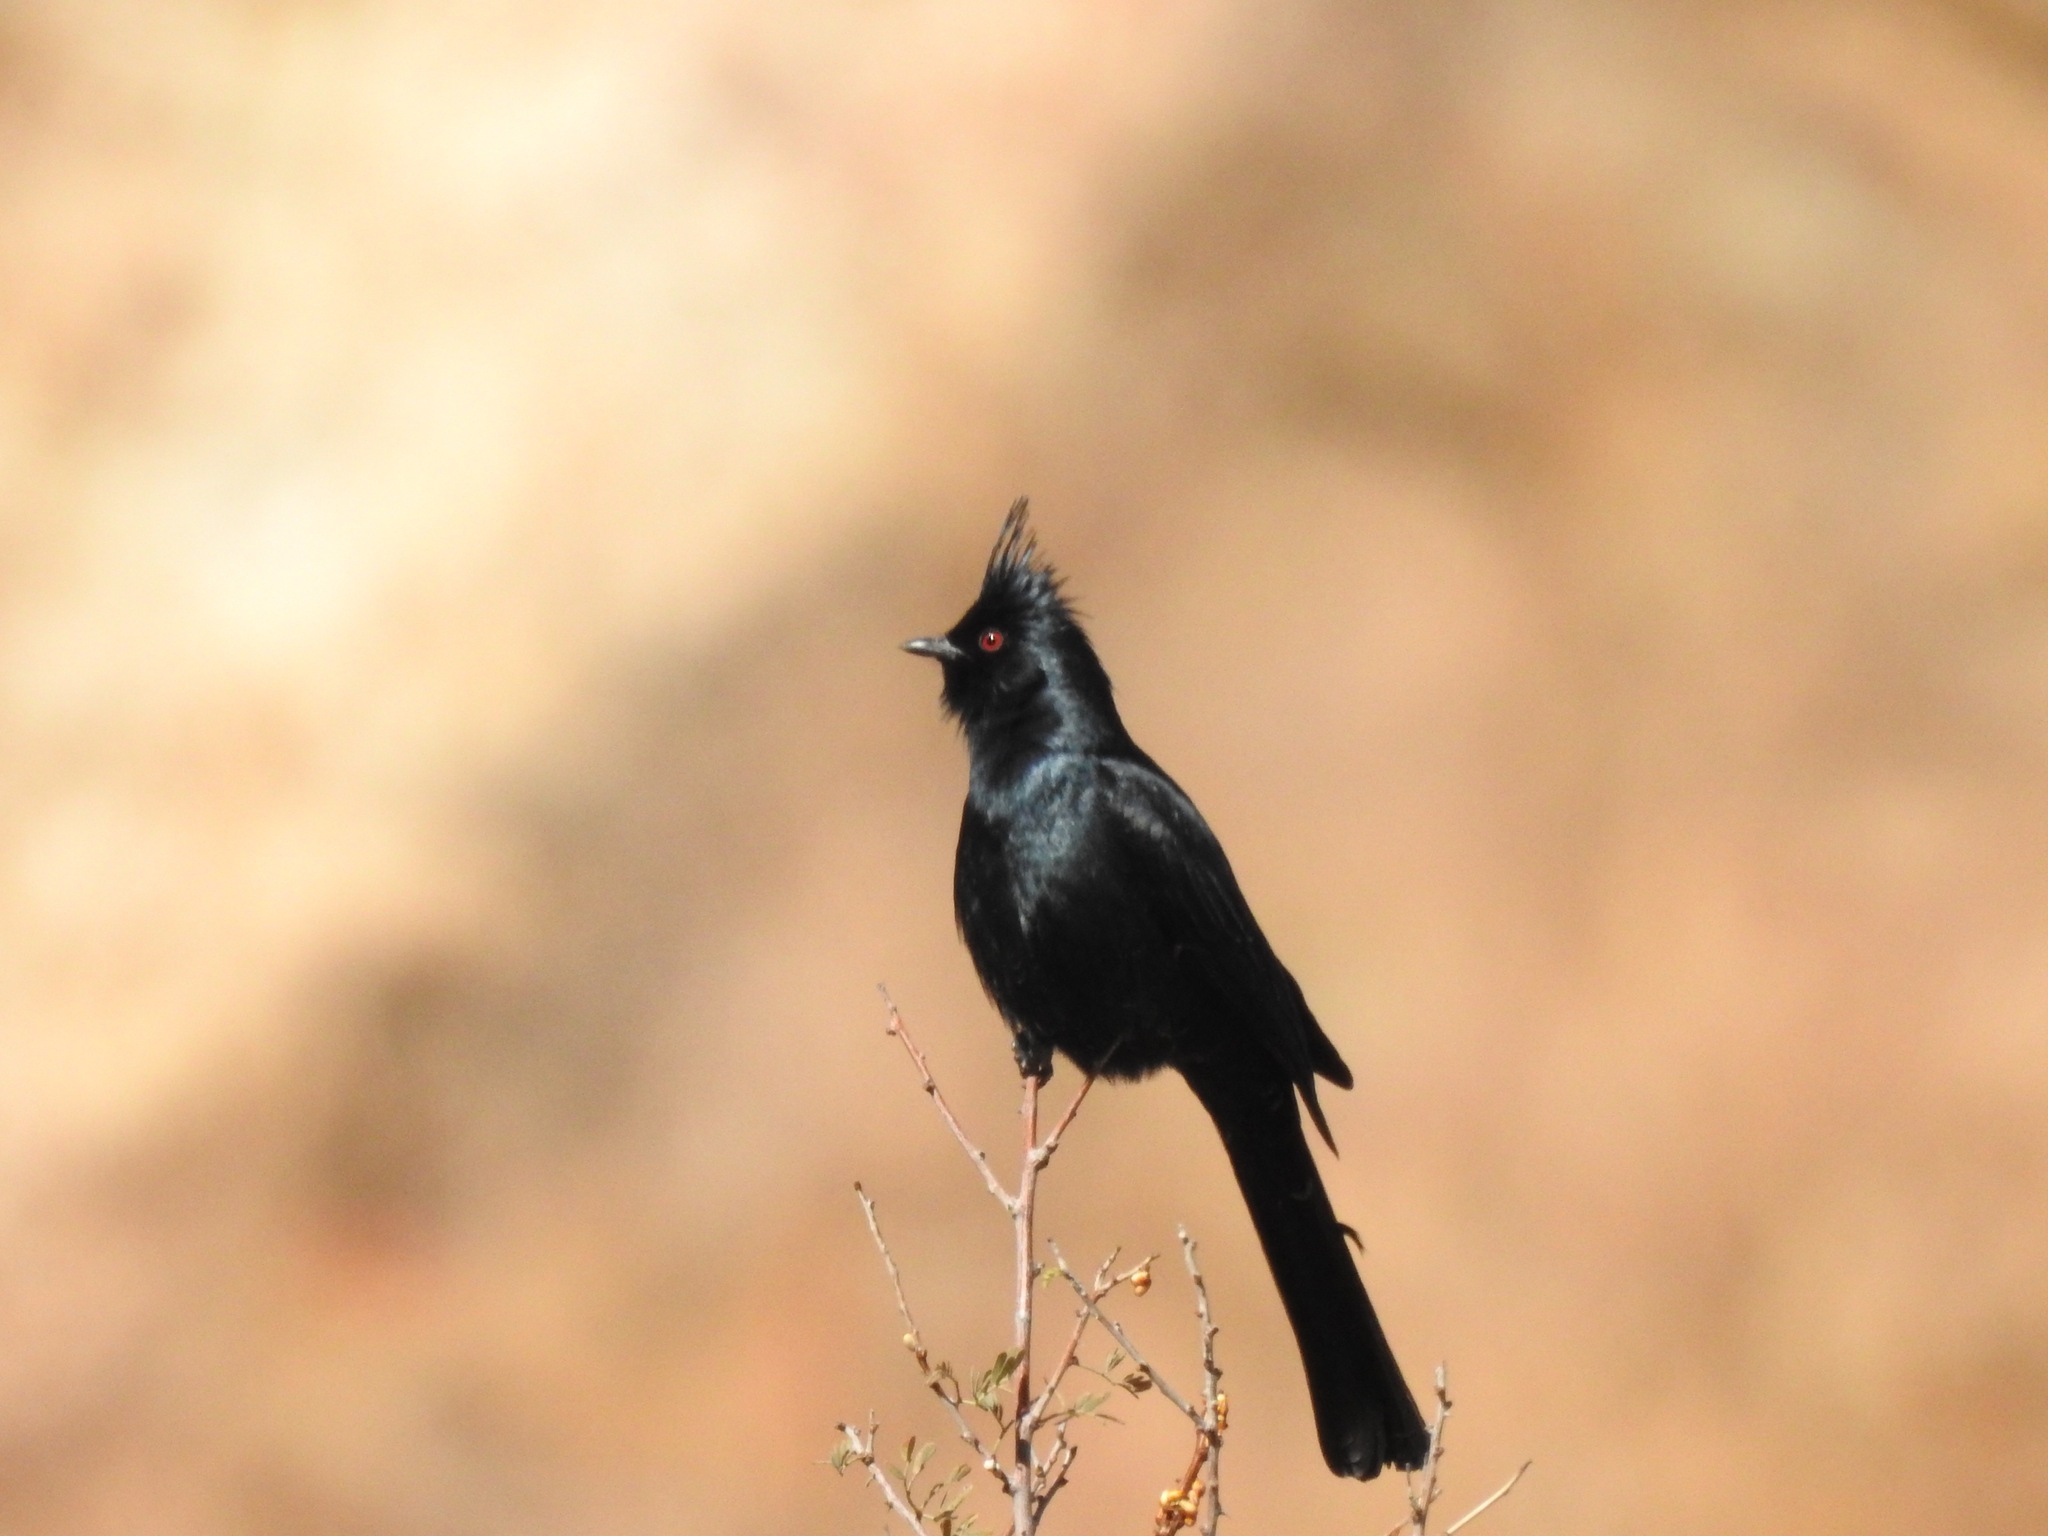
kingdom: Animalia
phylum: Chordata
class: Aves
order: Passeriformes
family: Ptilogonatidae
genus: Phainopepla
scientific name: Phainopepla nitens
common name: Phainopepla
